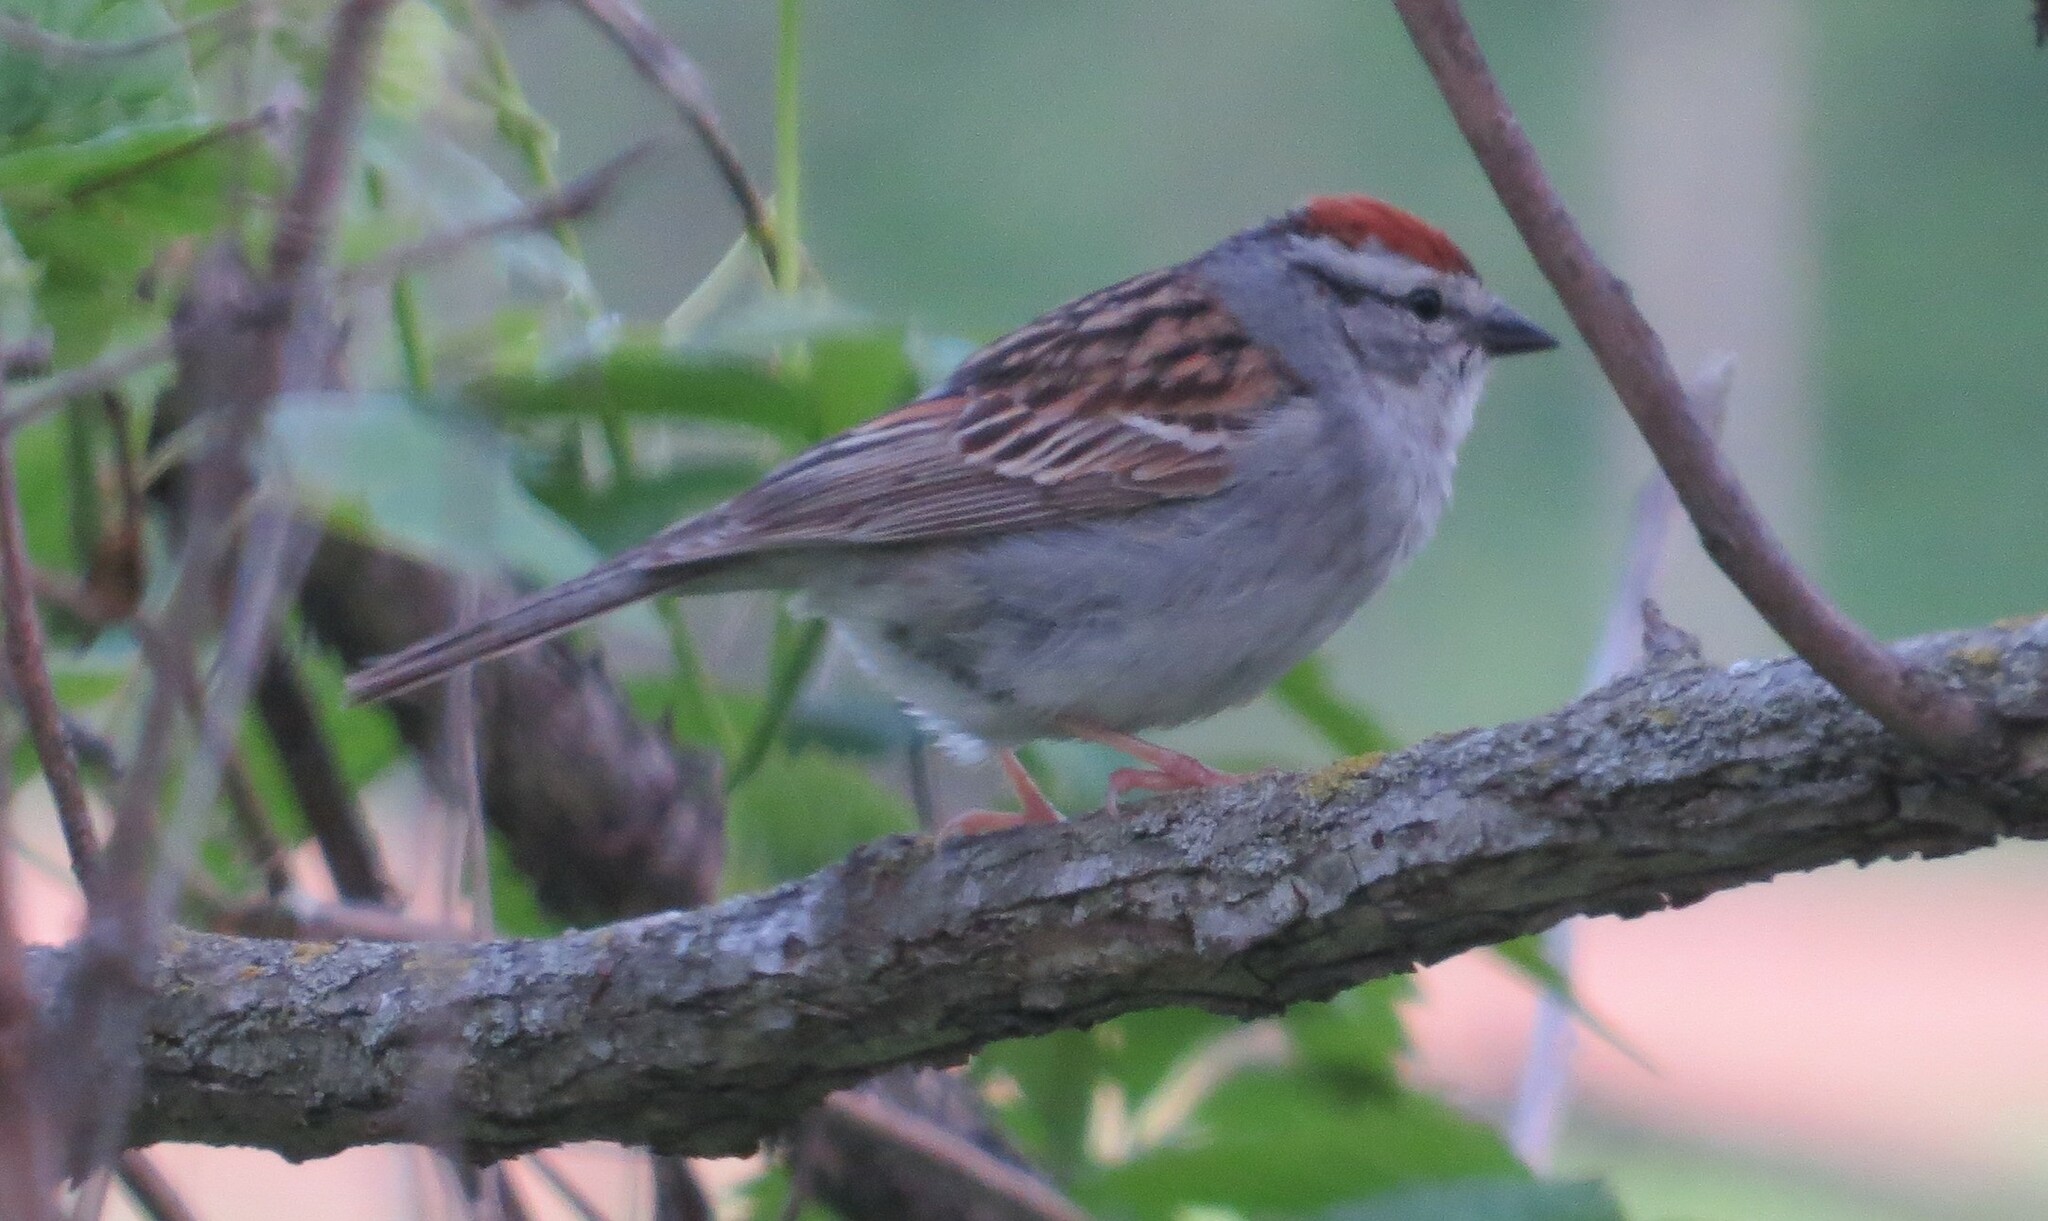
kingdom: Animalia
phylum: Chordata
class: Aves
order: Passeriformes
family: Passerellidae
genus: Spizella
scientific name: Spizella passerina
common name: Chipping sparrow
